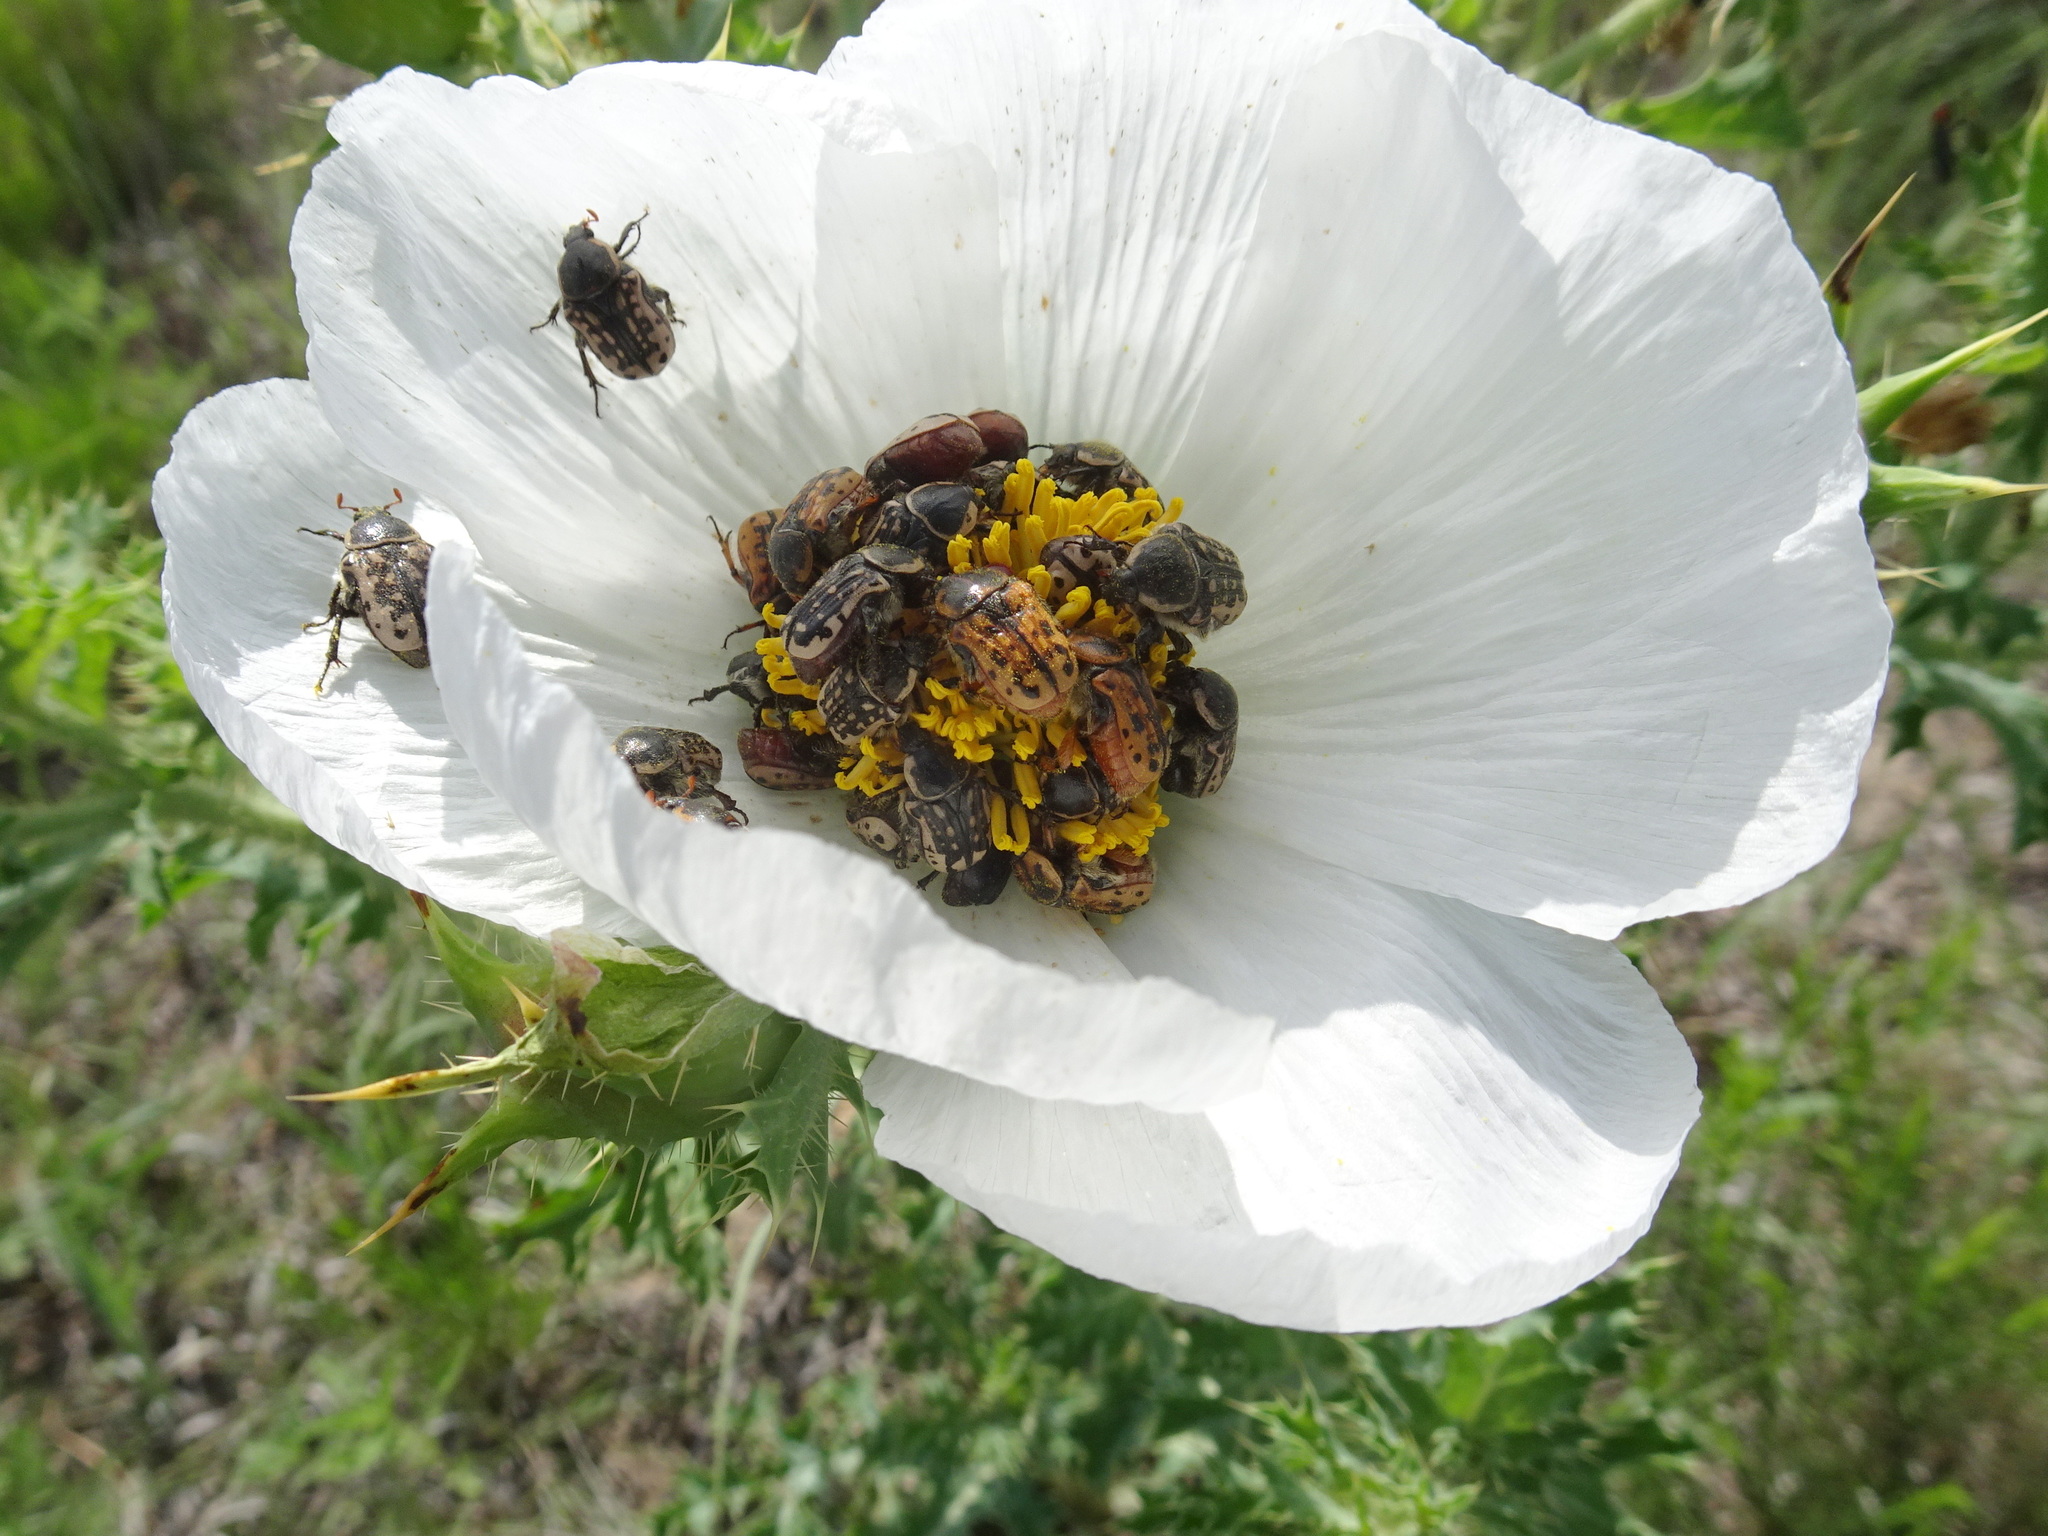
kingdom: Animalia
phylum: Arthropoda
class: Insecta
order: Coleoptera
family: Scarabaeidae
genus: Euphoria
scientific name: Euphoria kernii
